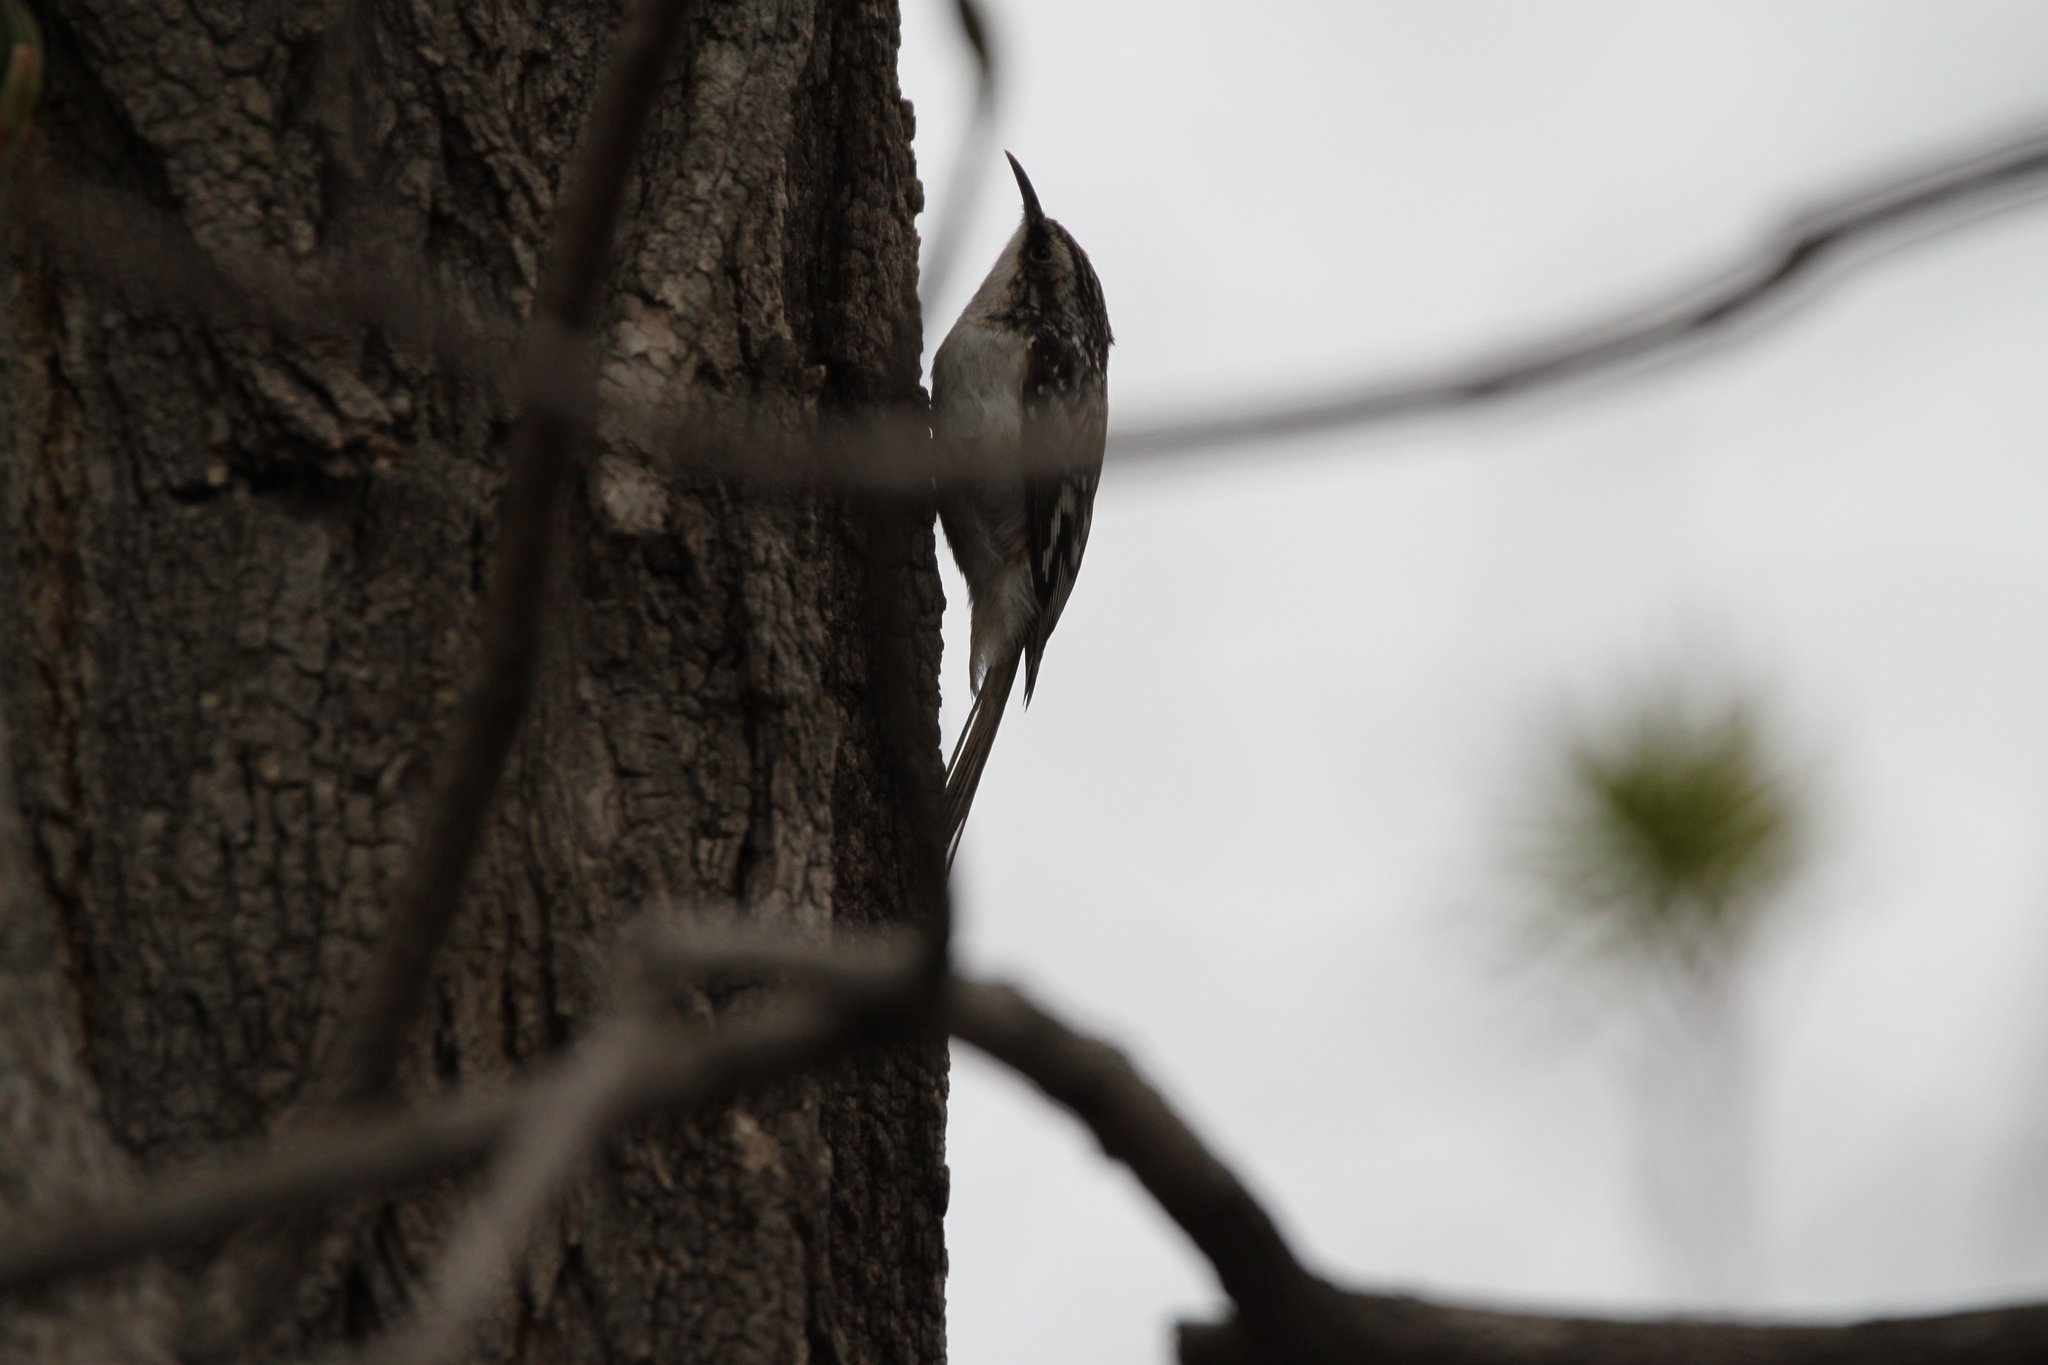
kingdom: Animalia
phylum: Chordata
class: Aves
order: Passeriformes
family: Certhiidae
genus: Certhia
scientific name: Certhia americana
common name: Brown creeper
